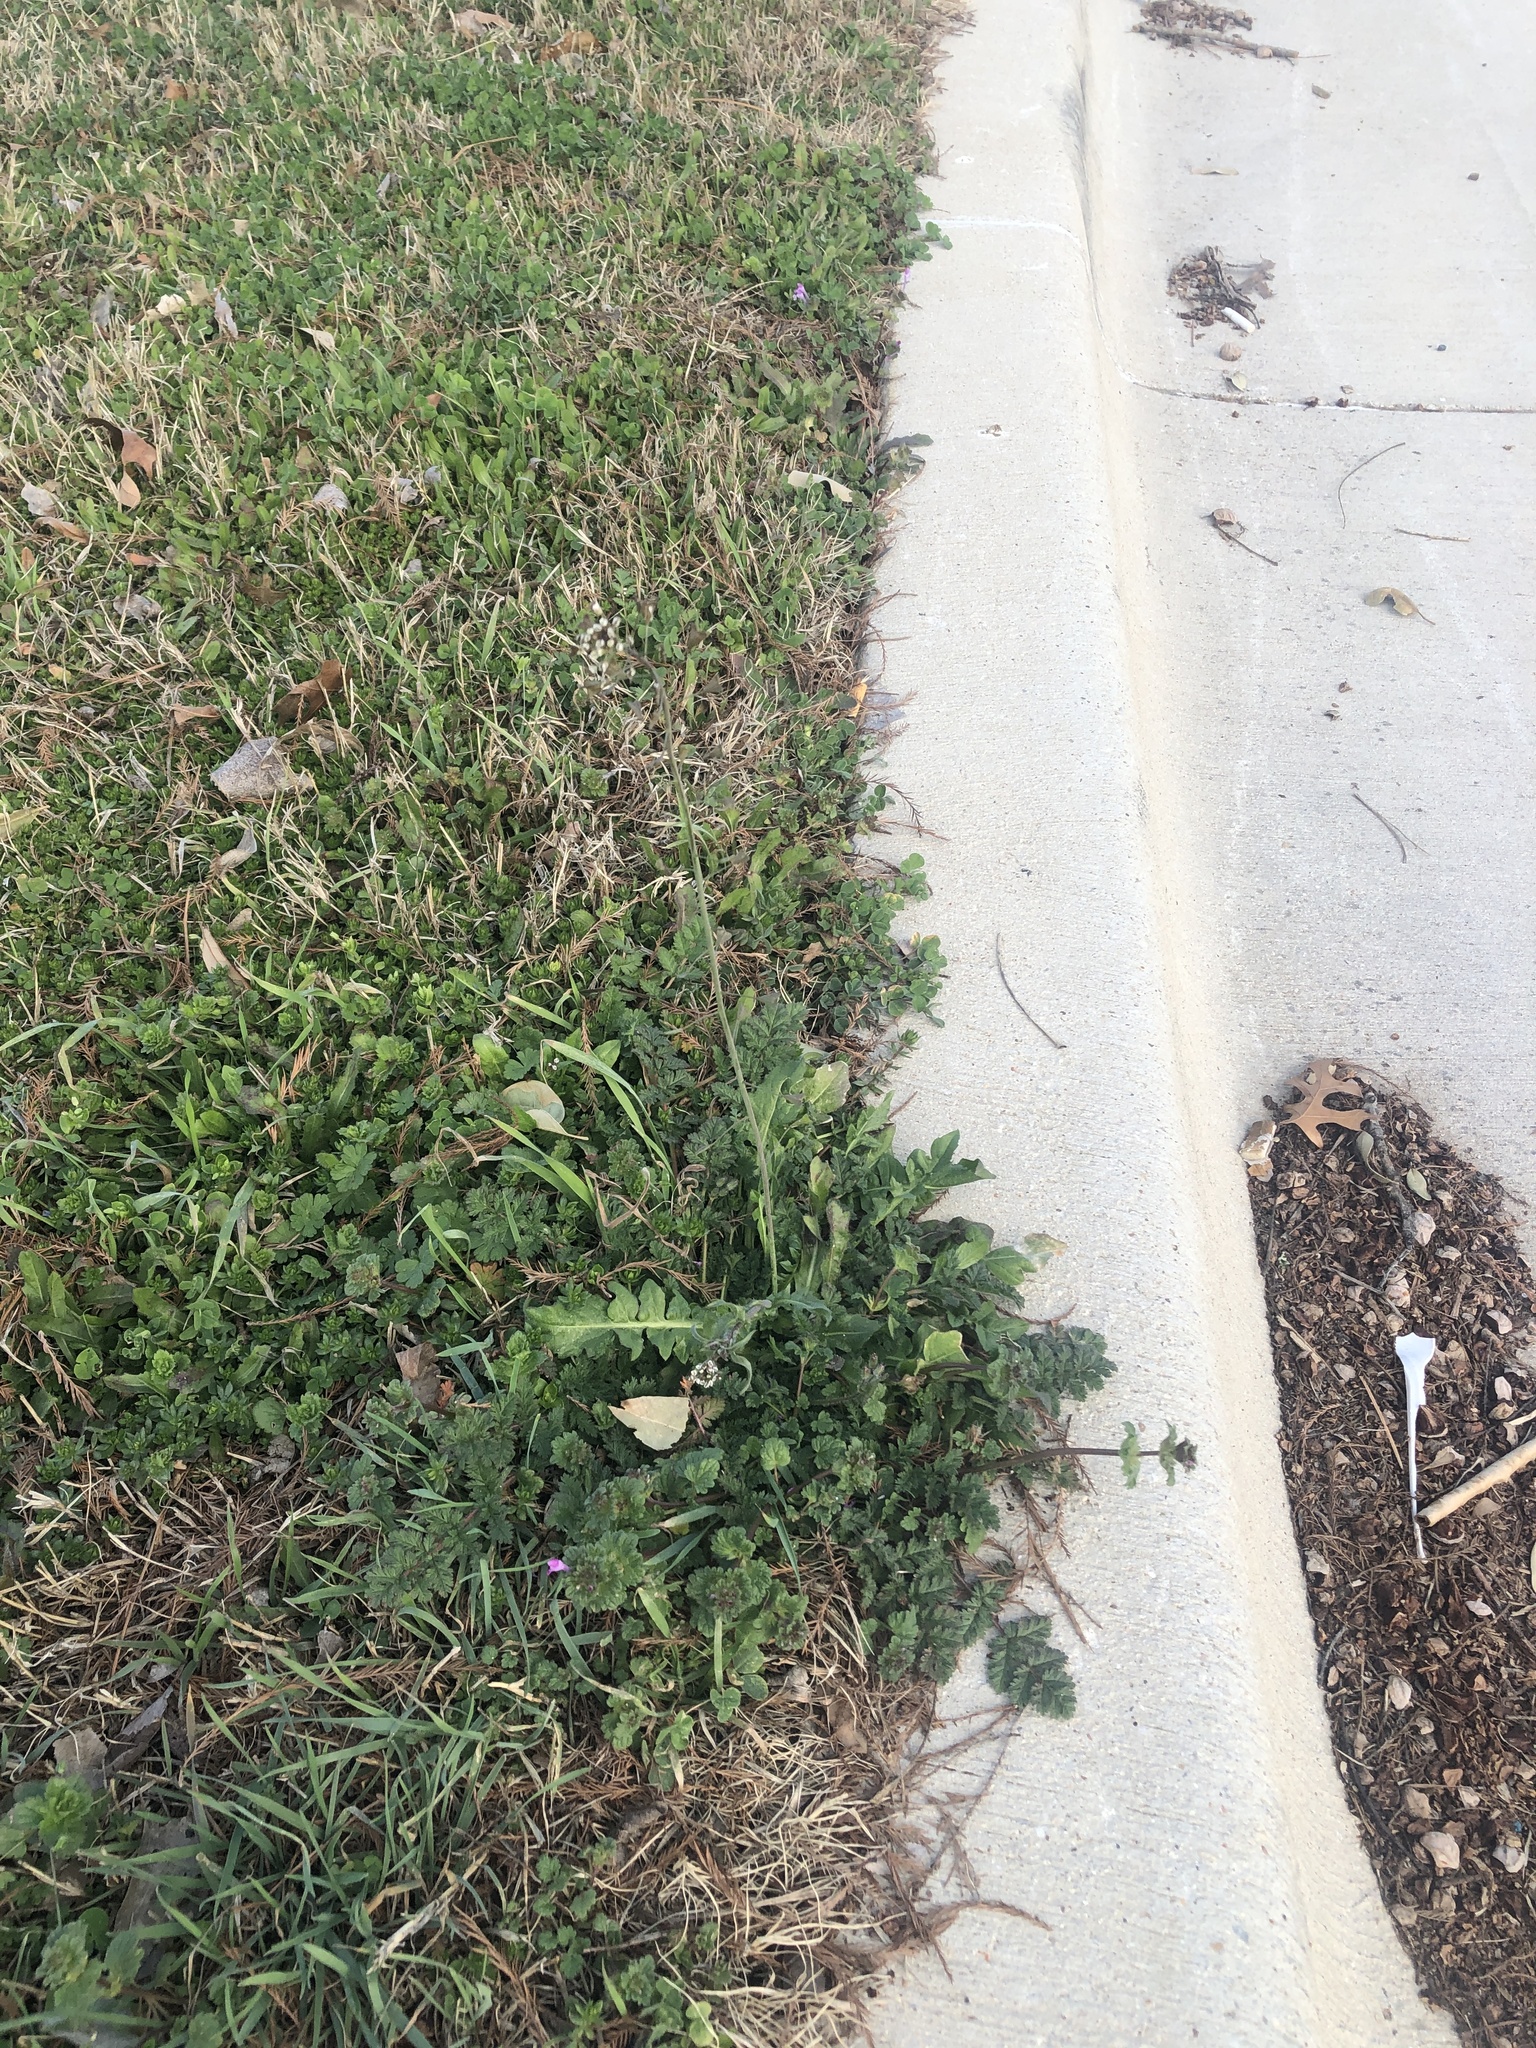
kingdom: Plantae
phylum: Tracheophyta
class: Magnoliopsida
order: Brassicales
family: Brassicaceae
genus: Capsella
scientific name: Capsella bursa-pastoris
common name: Shepherd's purse
